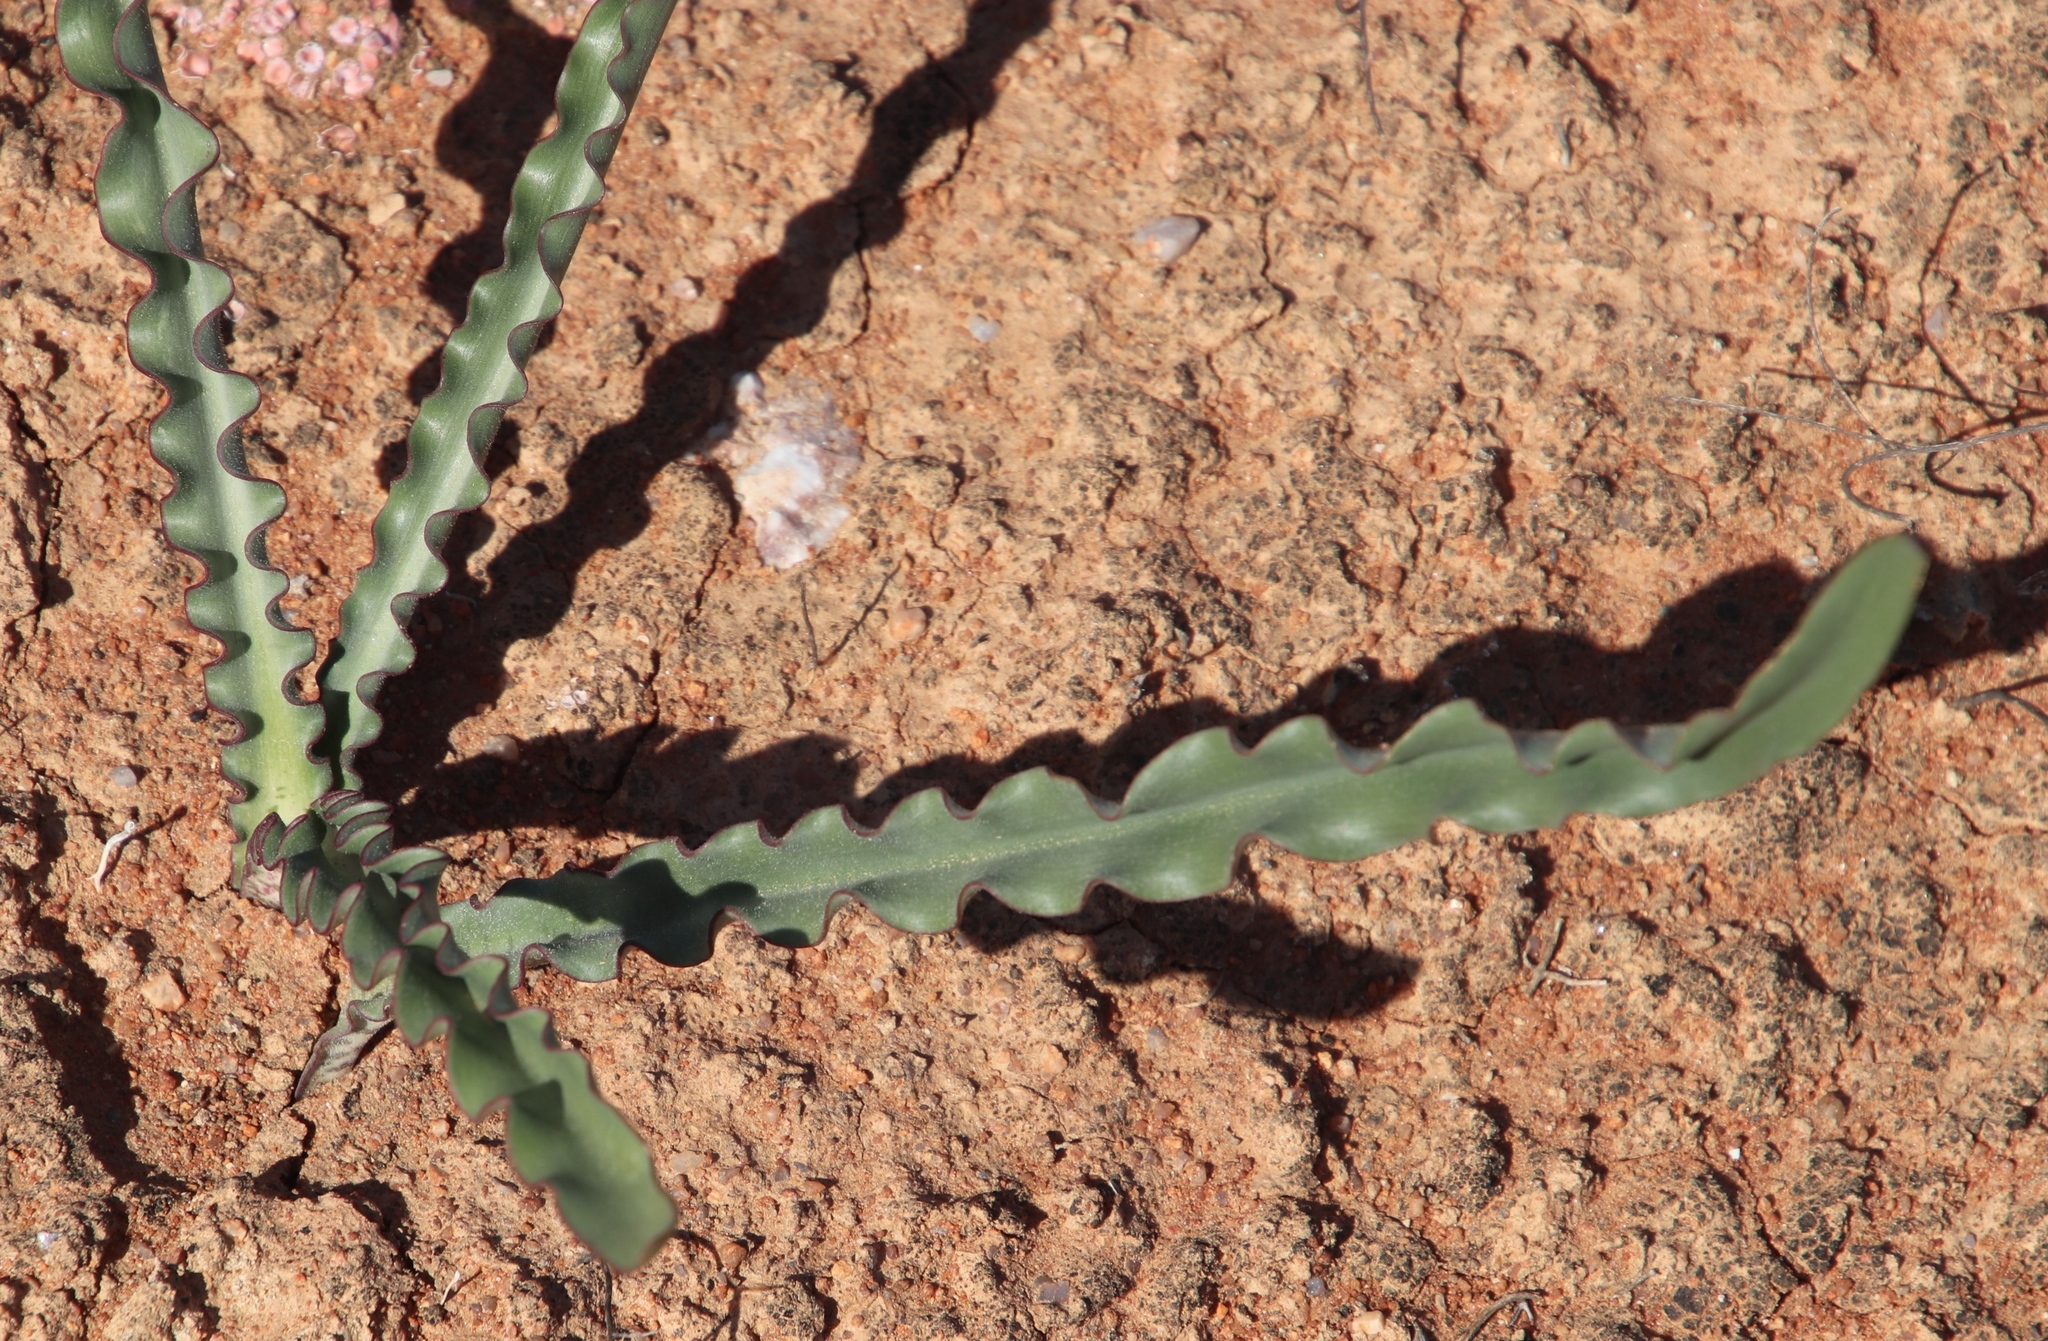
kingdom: Plantae
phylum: Tracheophyta
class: Liliopsida
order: Asparagales
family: Amaryllidaceae
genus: Haemanthus
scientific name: Haemanthus crispus
